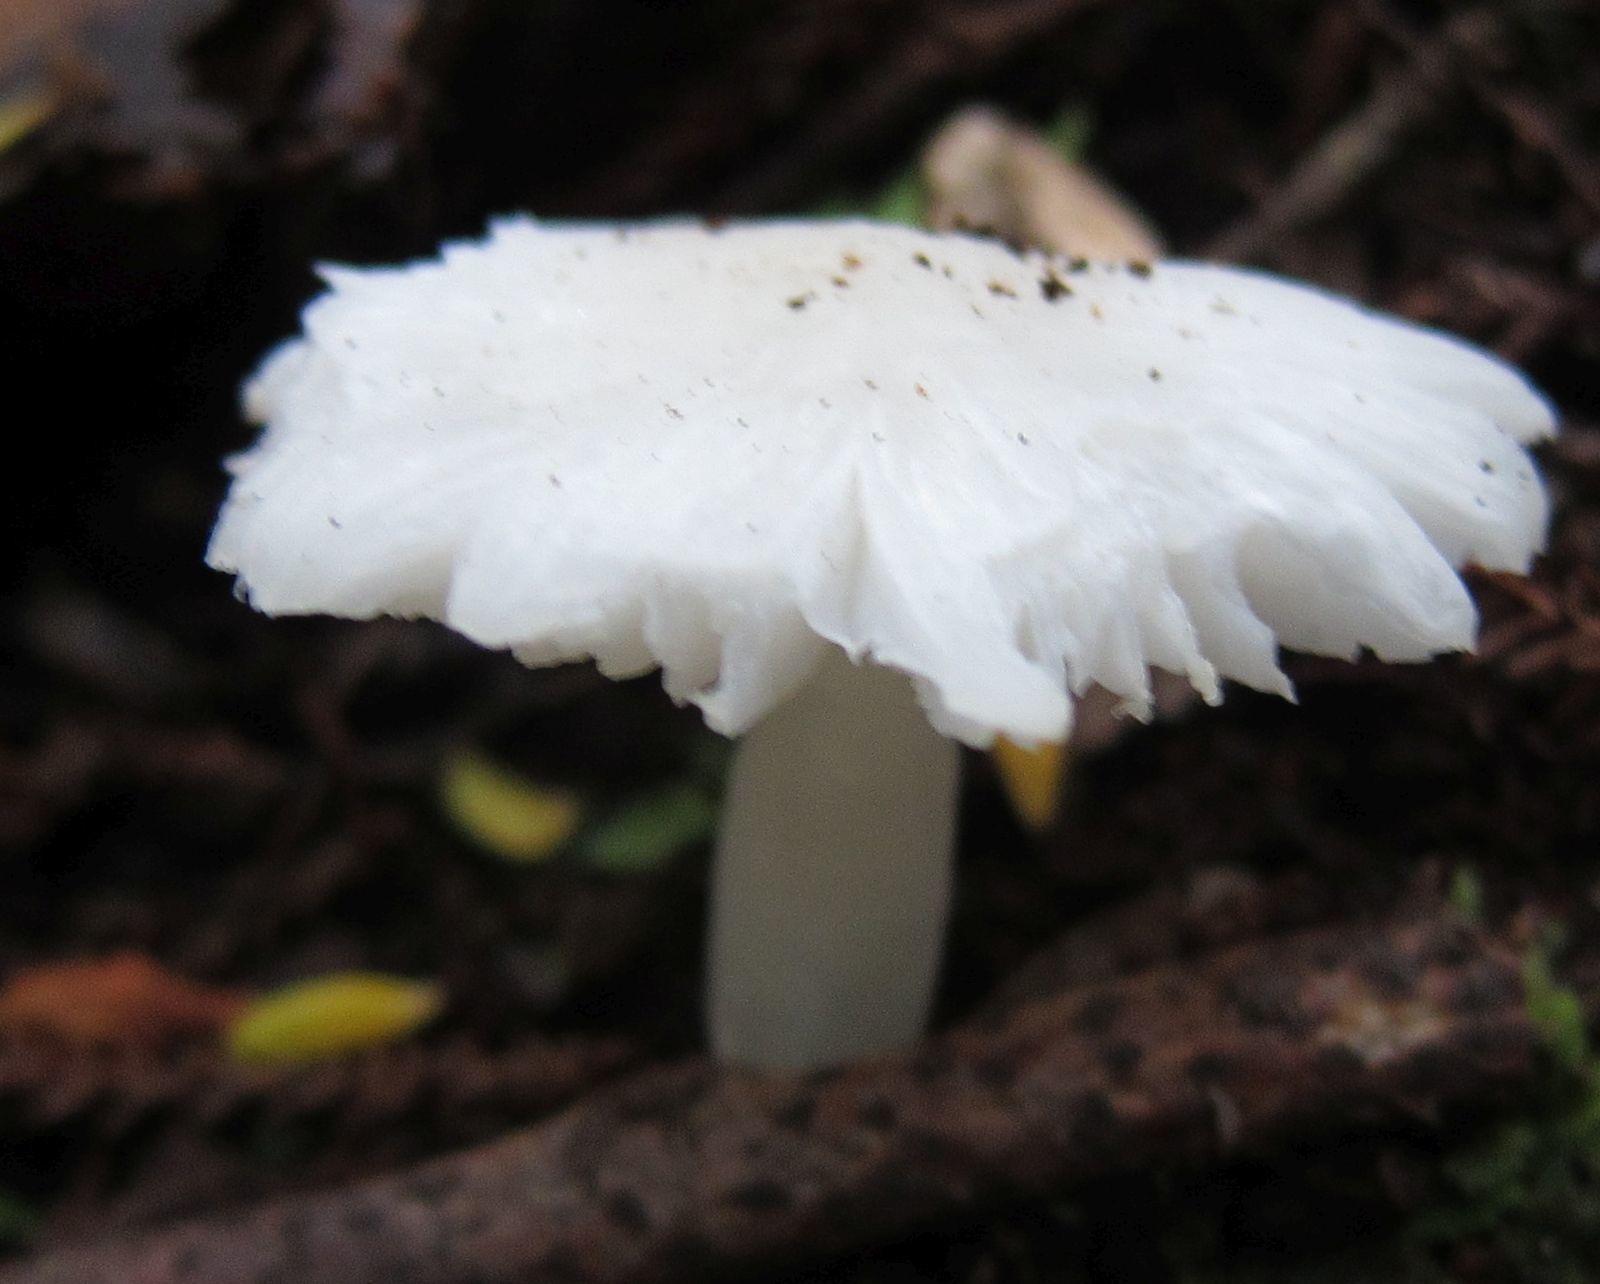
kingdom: Fungi
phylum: Basidiomycota
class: Agaricomycetes
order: Agaricales
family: Hygrophoraceae
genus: Humidicutis
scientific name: Humidicutis mavis
